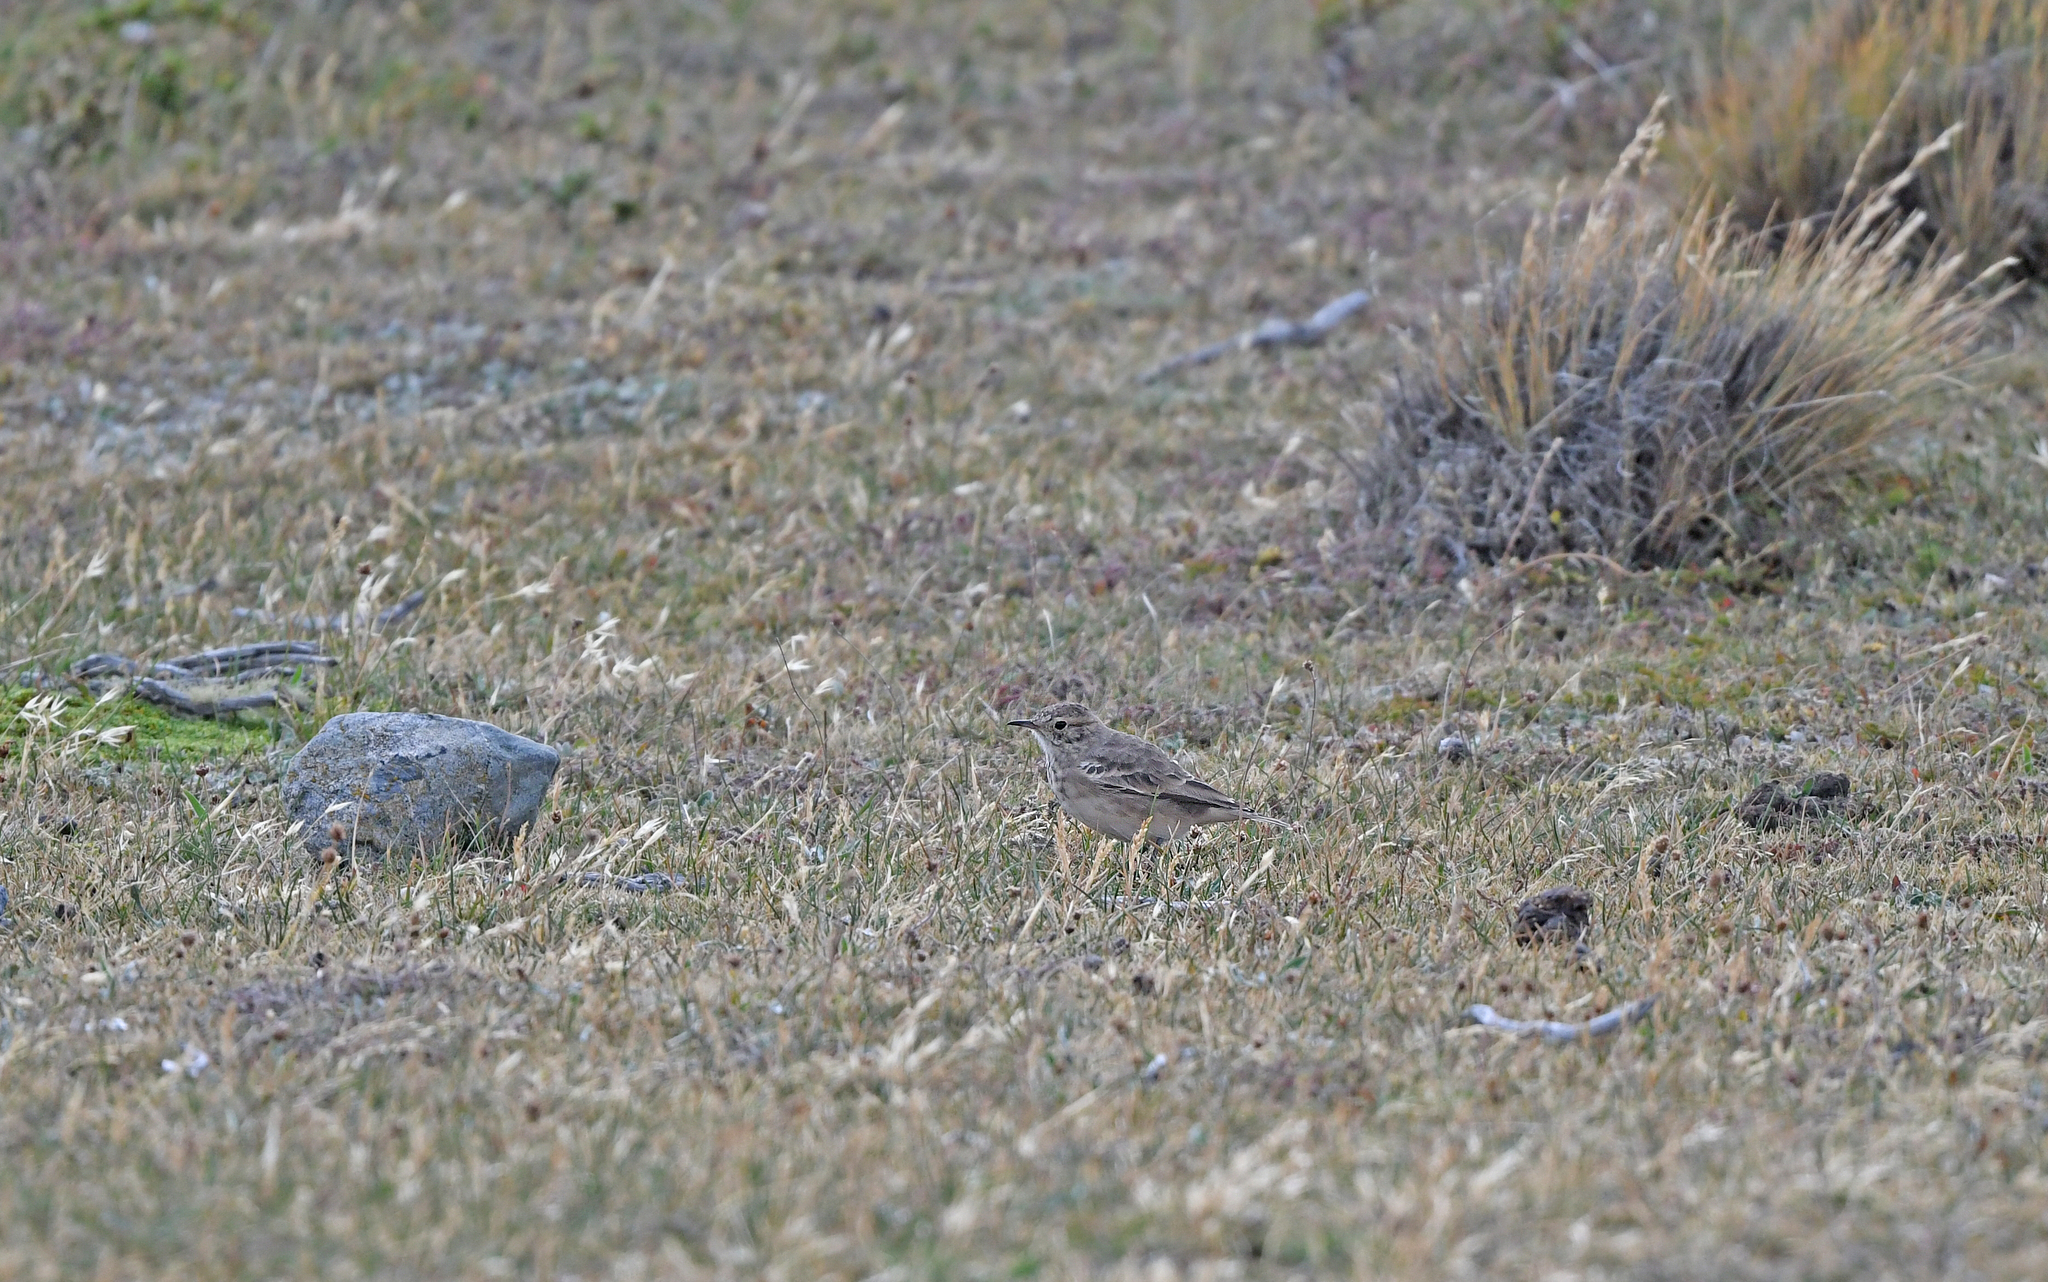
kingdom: Animalia
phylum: Chordata
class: Aves
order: Passeriformes
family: Furnariidae
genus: Geositta
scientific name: Geositta cunicularia
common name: Common miner
